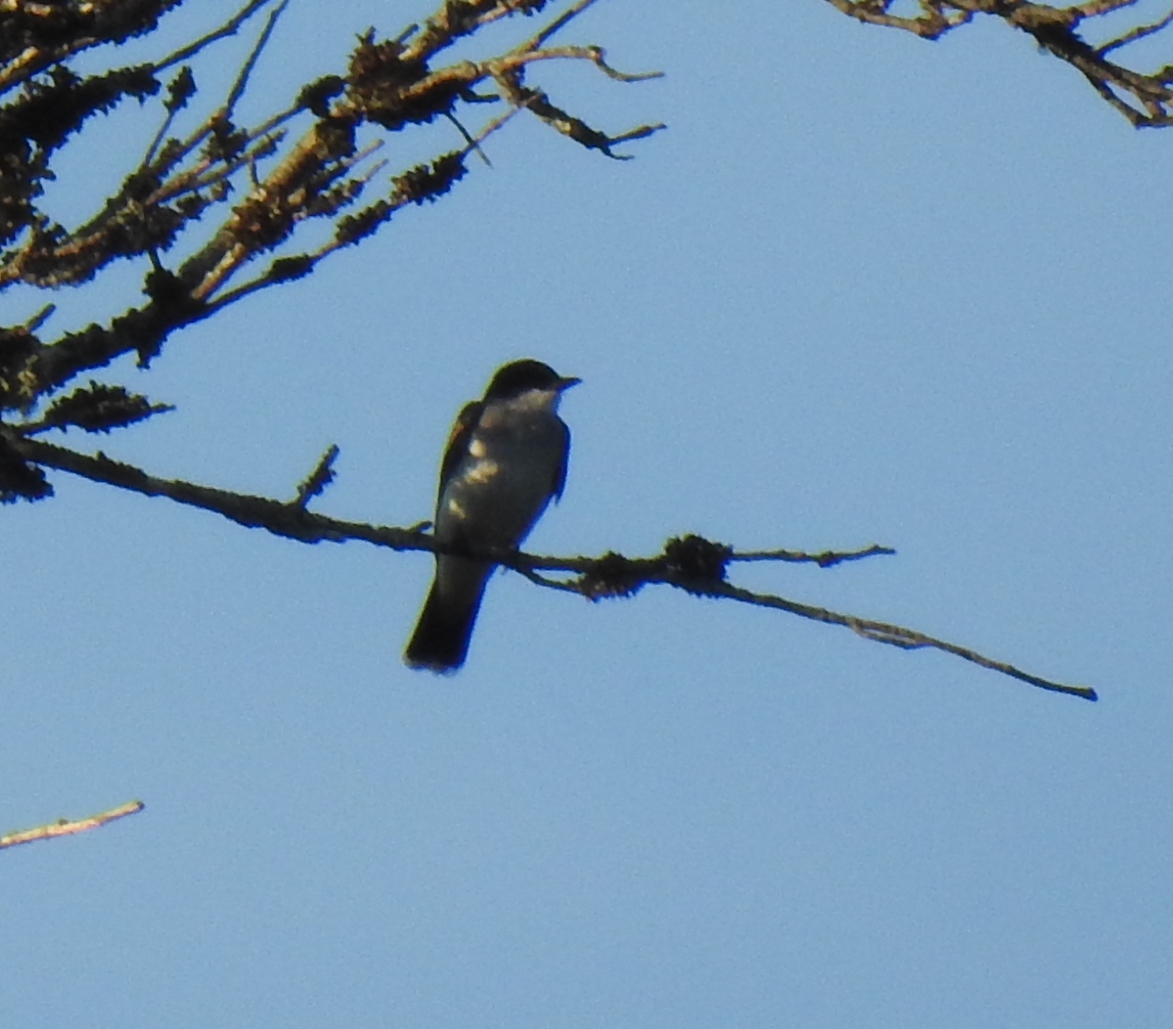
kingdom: Animalia
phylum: Chordata
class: Aves
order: Passeriformes
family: Tyrannidae
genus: Tyrannus
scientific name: Tyrannus tyrannus
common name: Eastern kingbird
